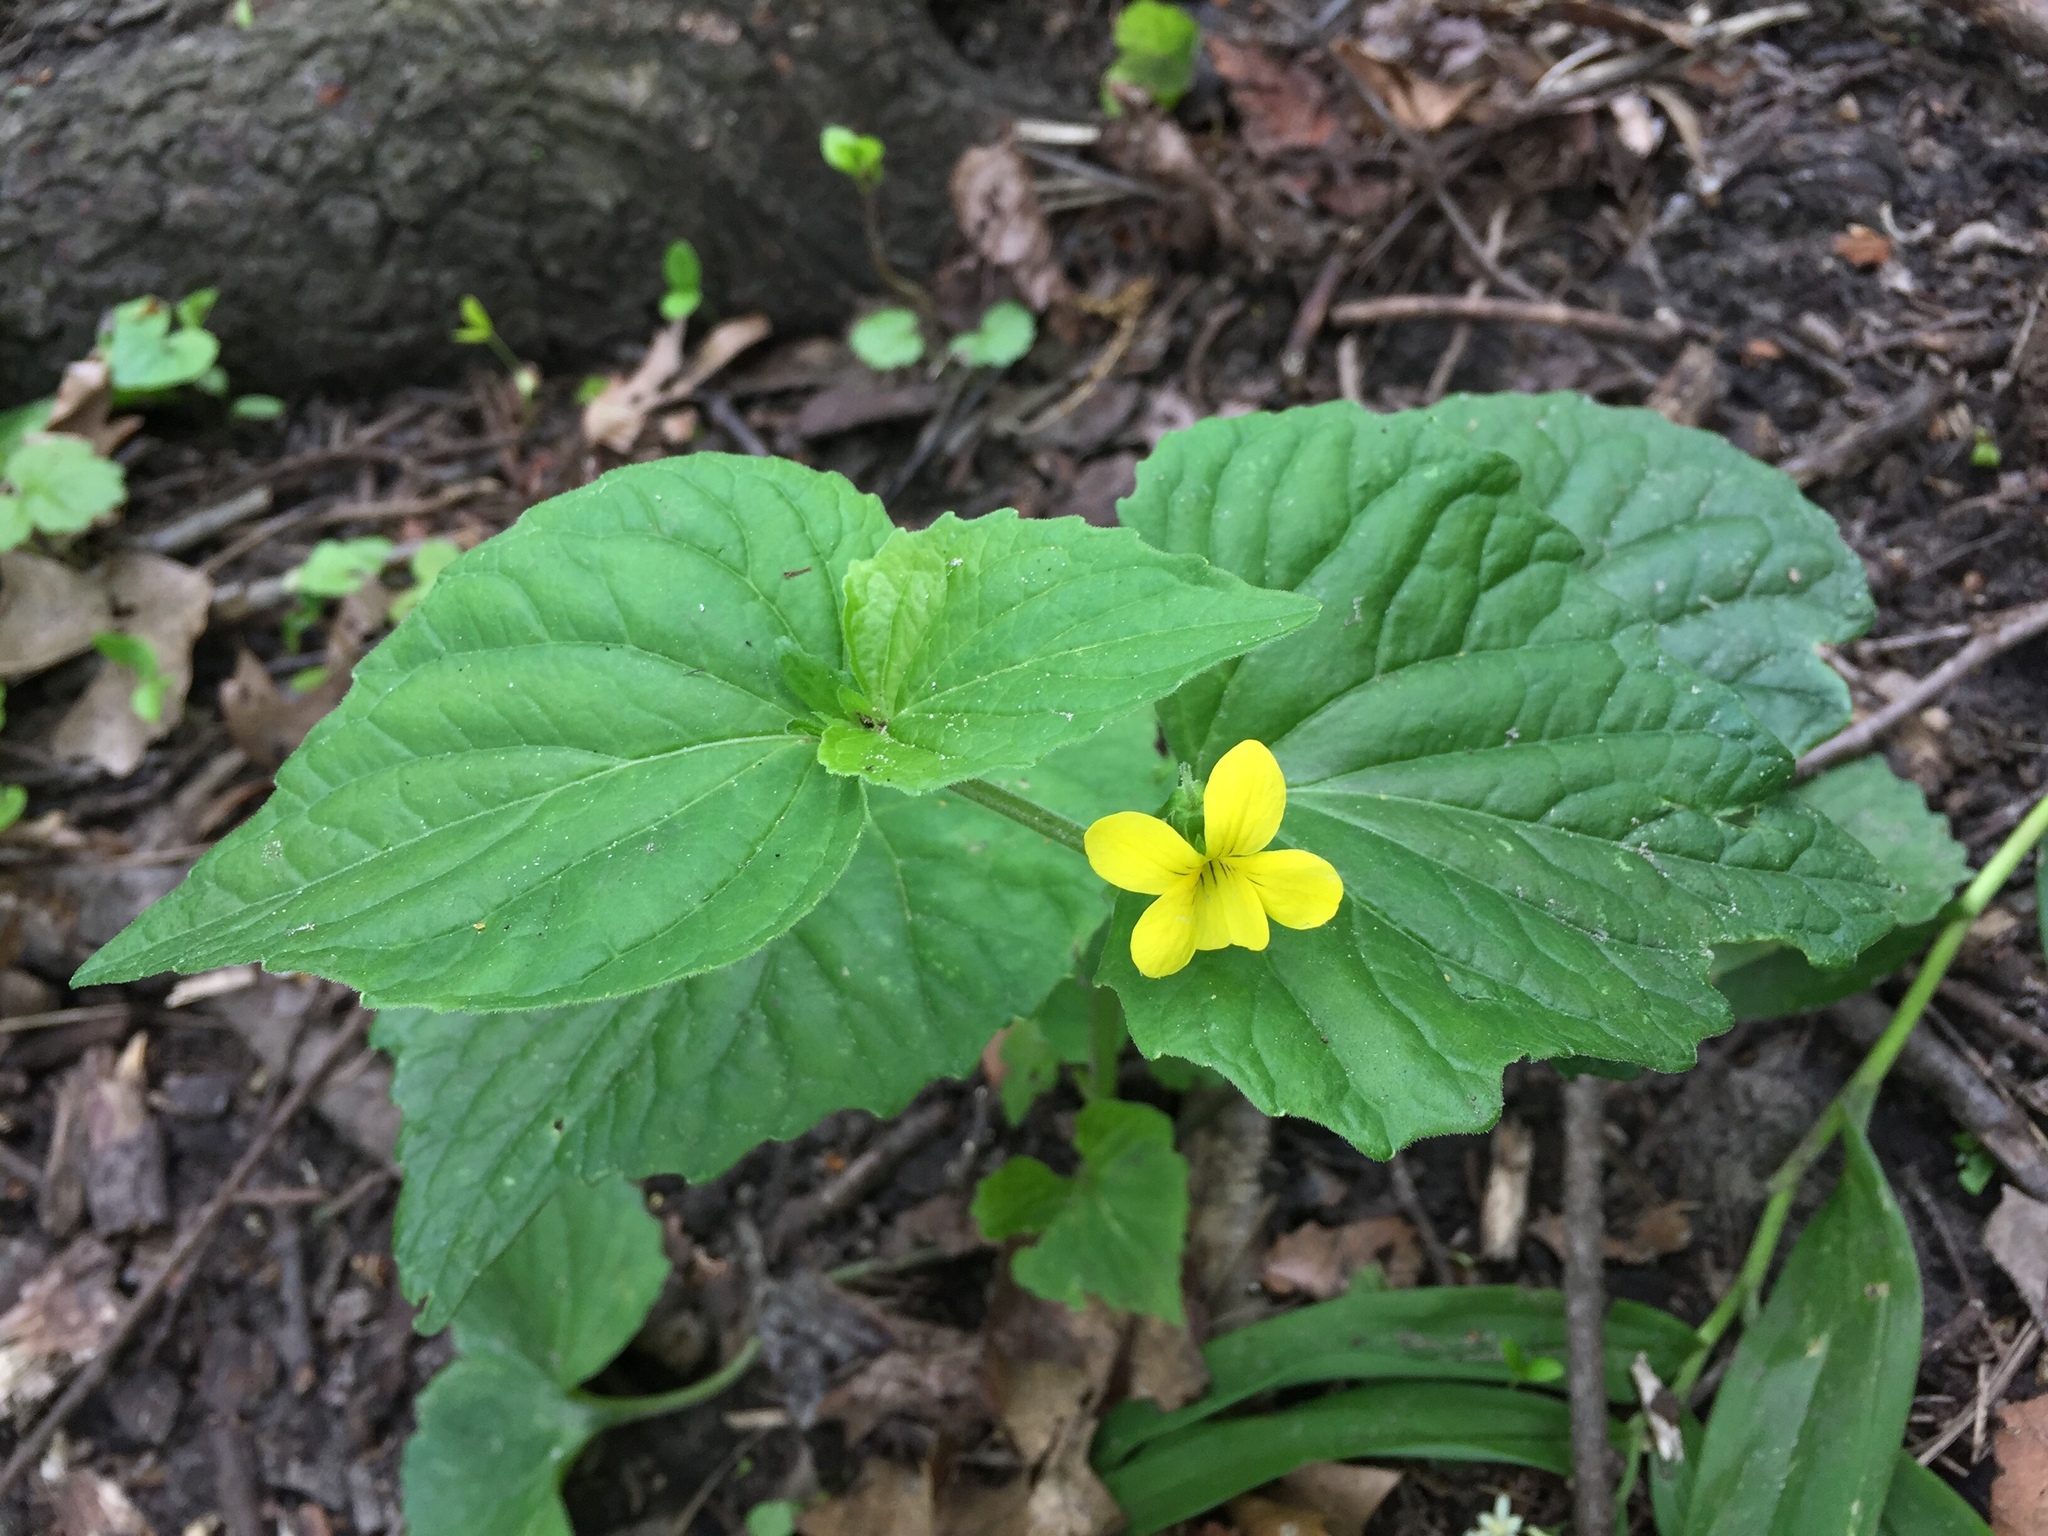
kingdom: Plantae
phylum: Tracheophyta
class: Magnoliopsida
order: Malpighiales
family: Violaceae
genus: Viola
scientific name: Viola eriocarpa
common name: Smooth yellow violet
